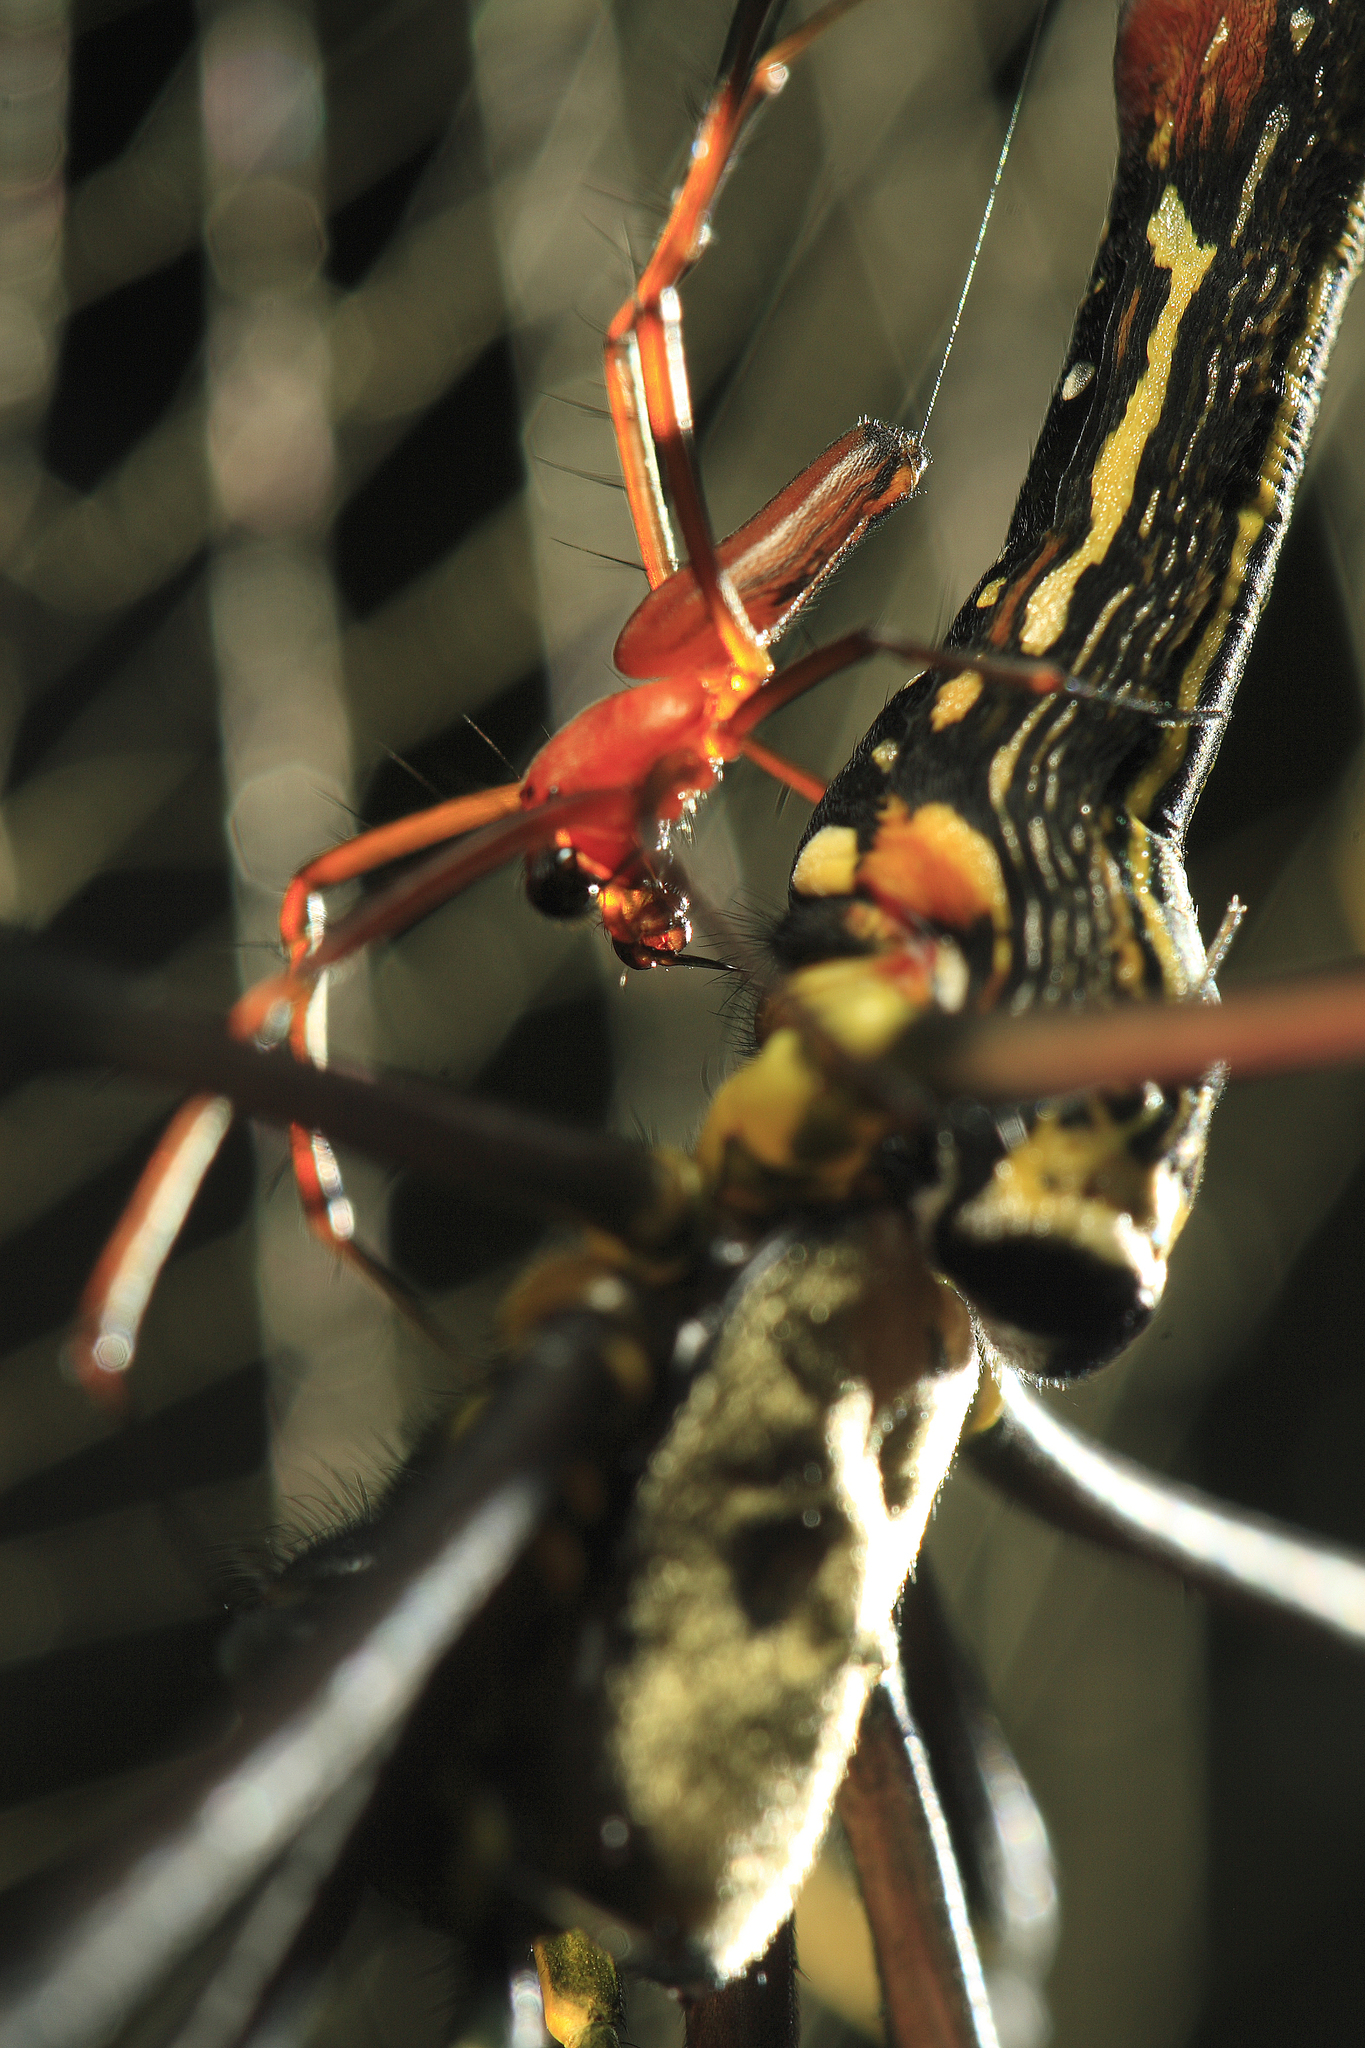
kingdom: Animalia
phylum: Arthropoda
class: Arachnida
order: Araneae
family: Araneidae
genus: Nephila
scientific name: Nephila pilipes
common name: Giant golden orb weaver
